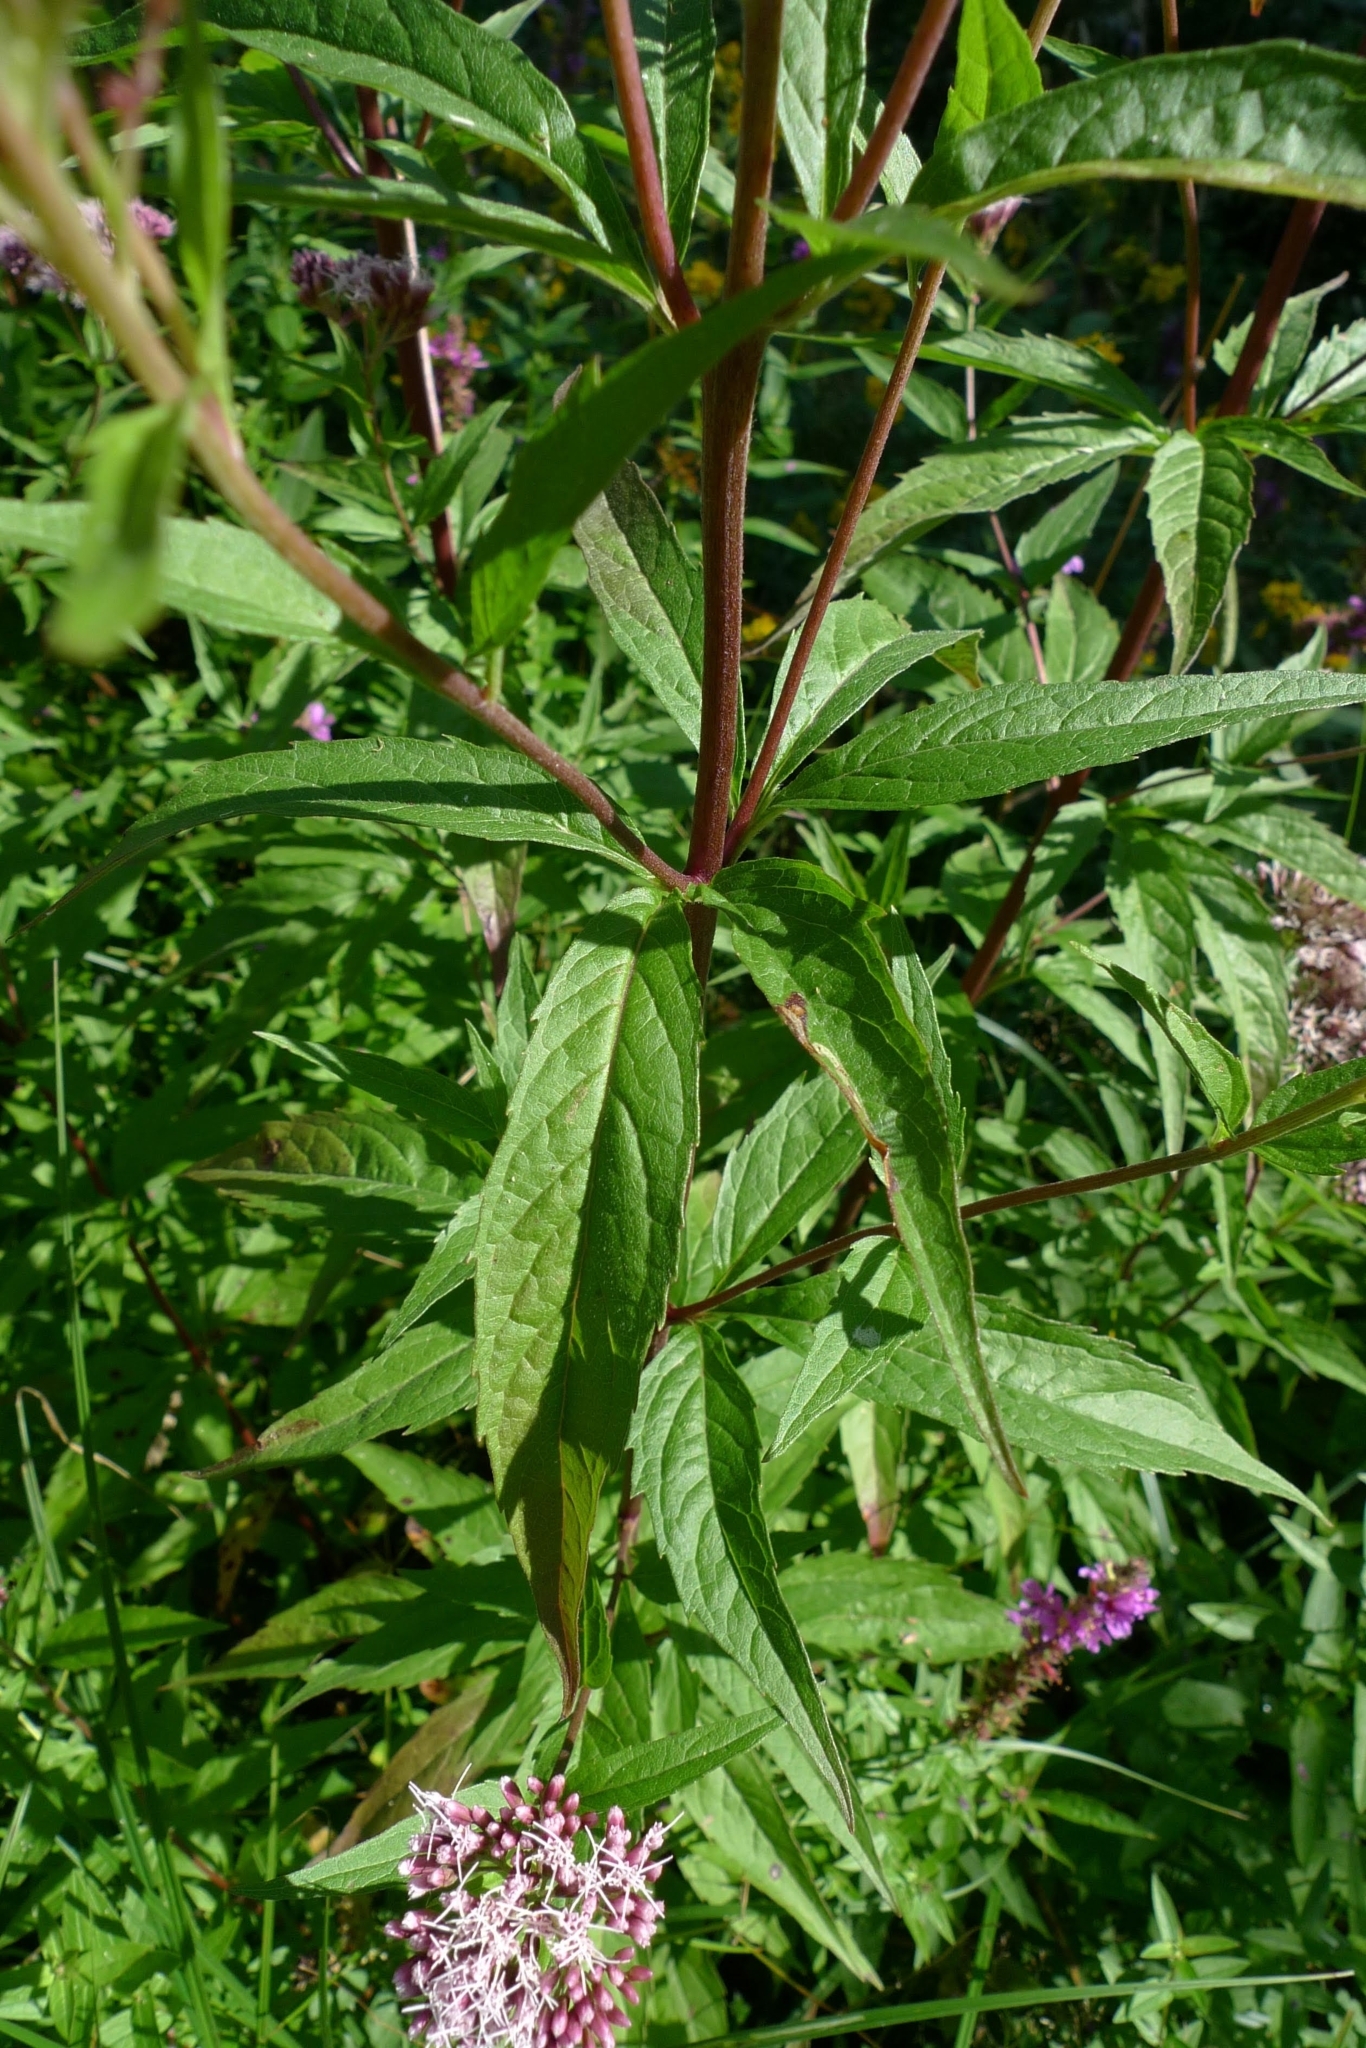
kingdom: Plantae
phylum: Tracheophyta
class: Magnoliopsida
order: Asterales
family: Asteraceae
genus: Eupatorium
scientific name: Eupatorium cannabinum
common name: Hemp-agrimony
